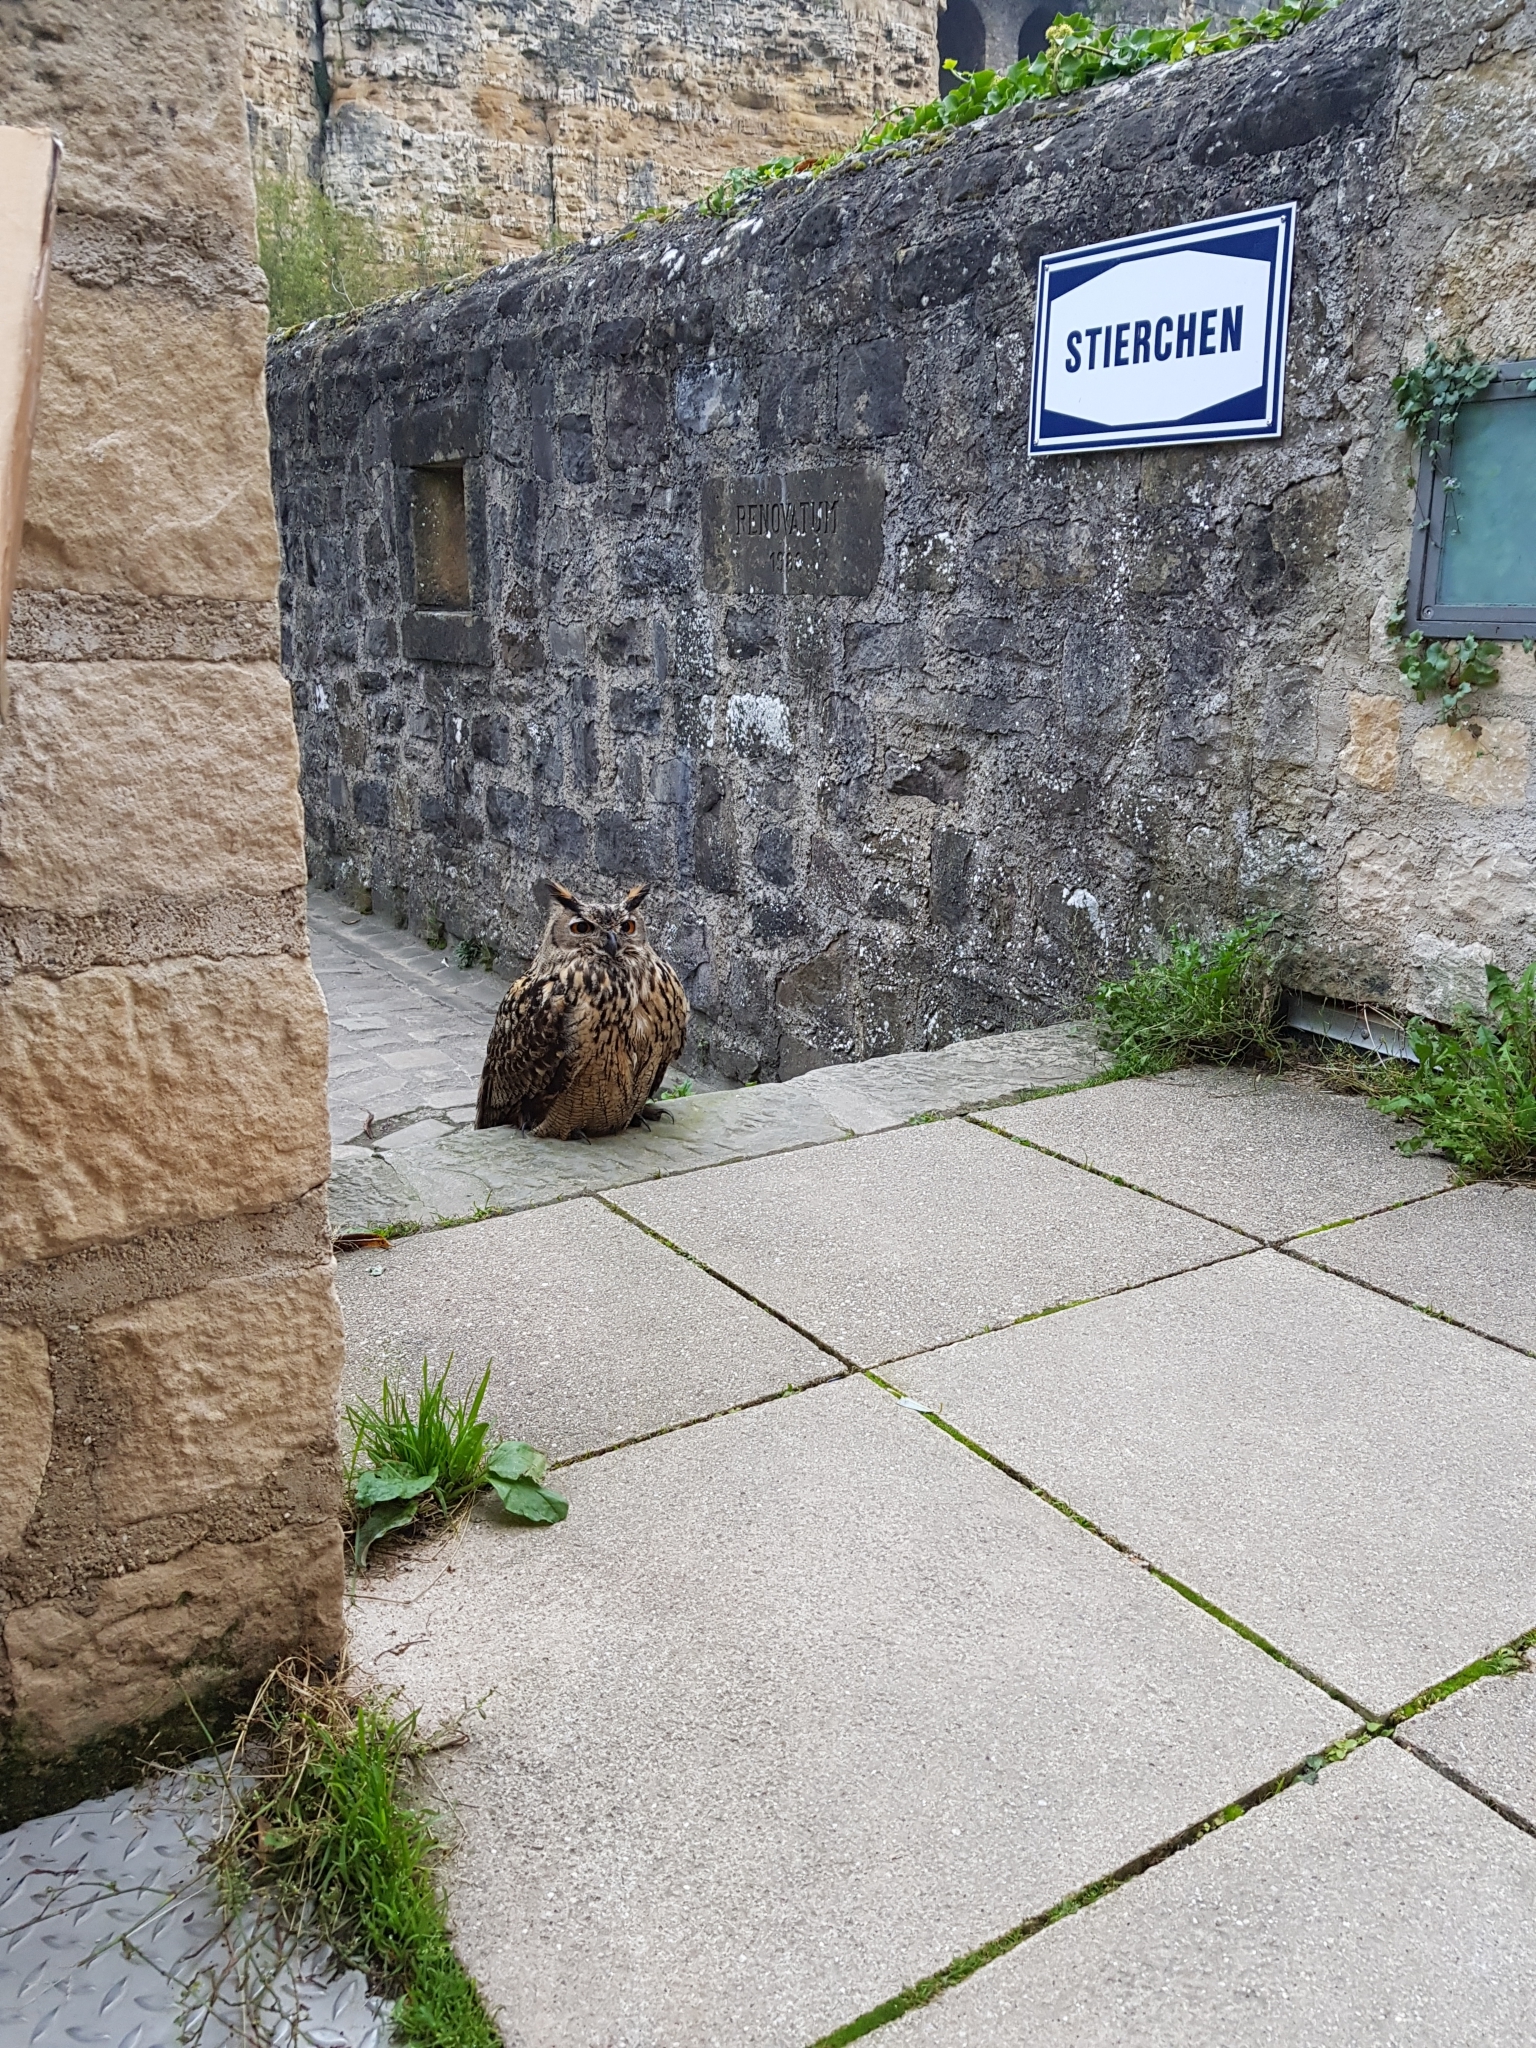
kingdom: Animalia
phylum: Chordata
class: Aves
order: Strigiformes
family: Strigidae
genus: Bubo
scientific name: Bubo bubo
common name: Eurasian eagle-owl
